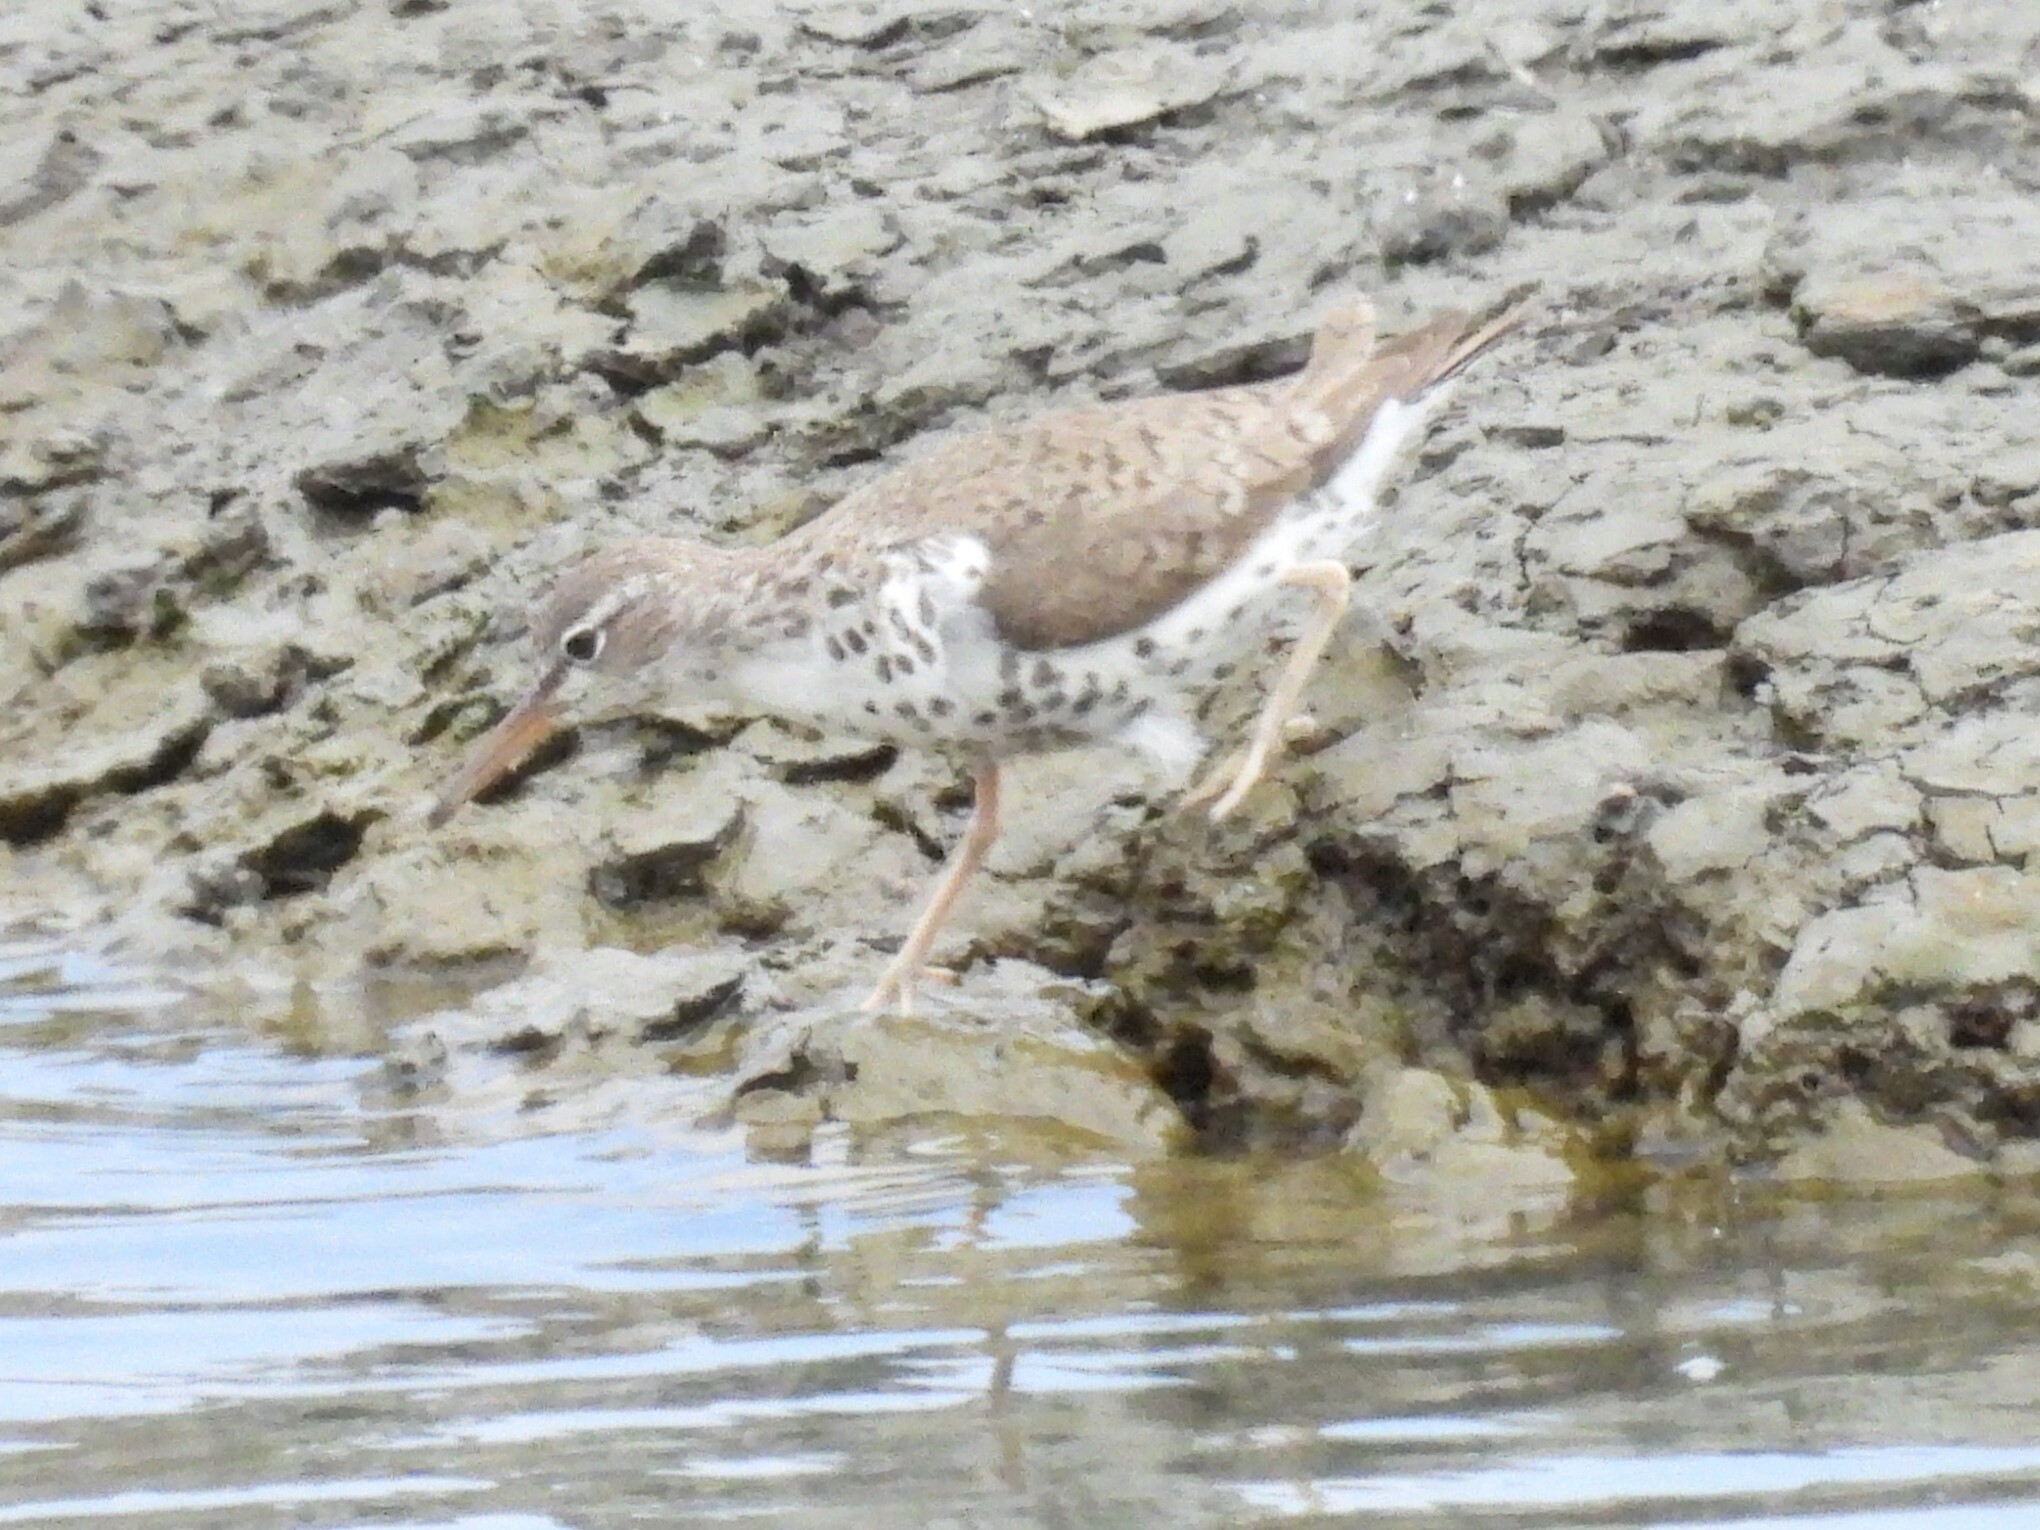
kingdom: Animalia
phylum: Chordata
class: Aves
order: Charadriiformes
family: Scolopacidae
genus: Actitis
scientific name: Actitis macularius
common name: Spotted sandpiper
